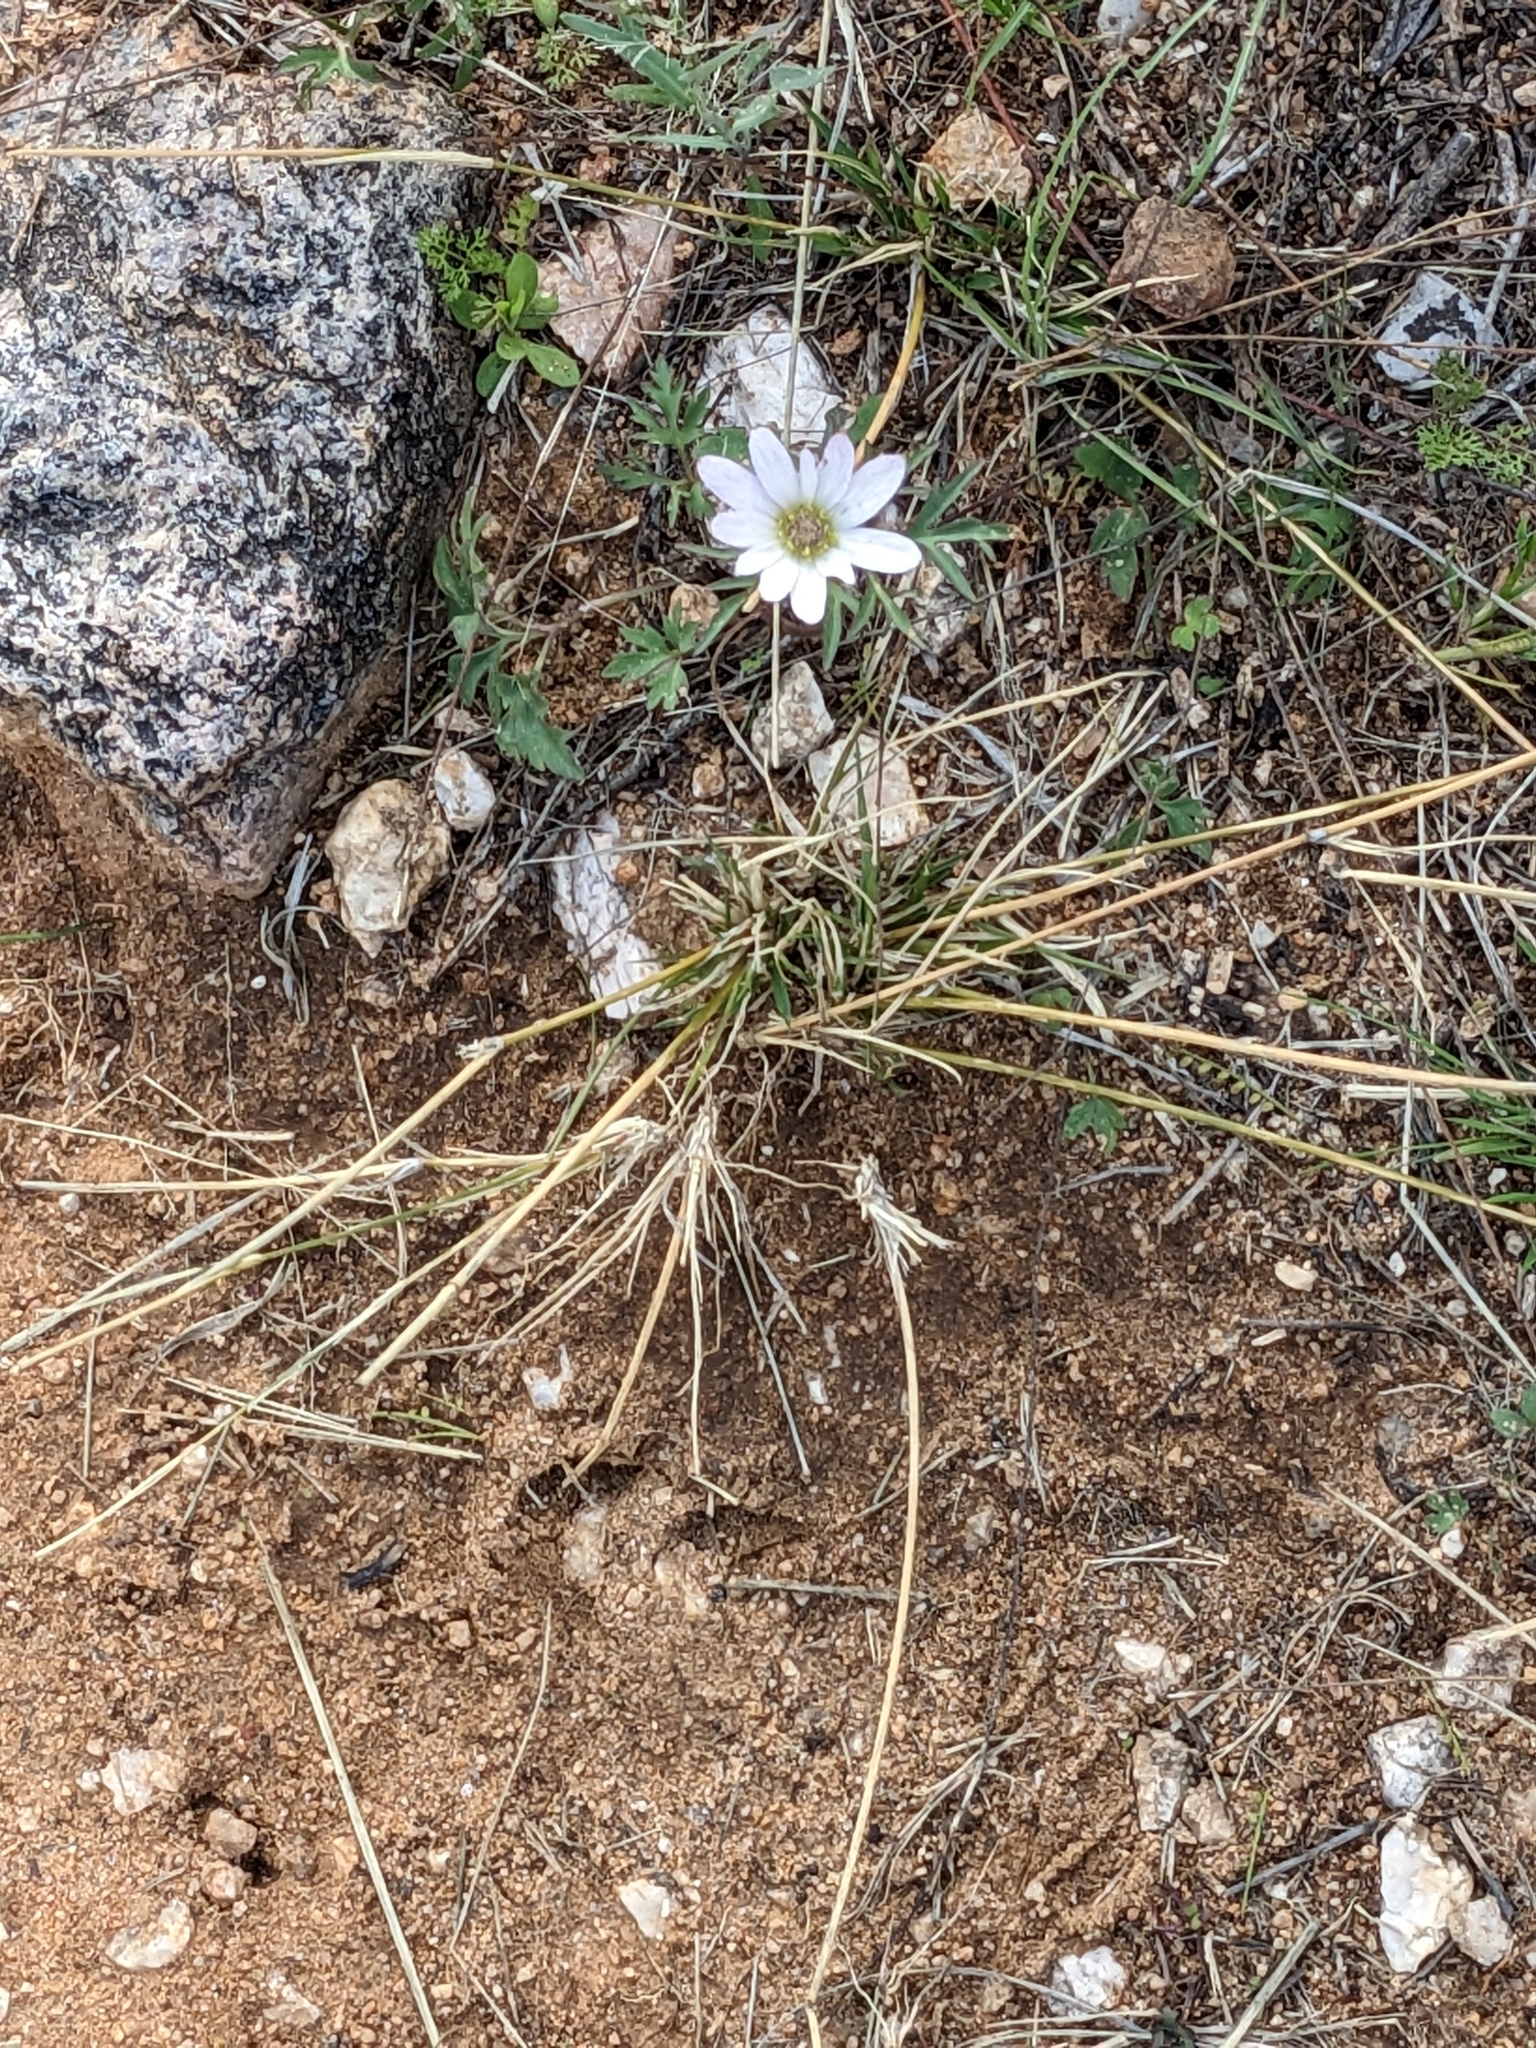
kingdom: Plantae
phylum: Tracheophyta
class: Magnoliopsida
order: Ranunculales
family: Ranunculaceae
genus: Anemone
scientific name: Anemone tuberosa
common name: Desert anemone
